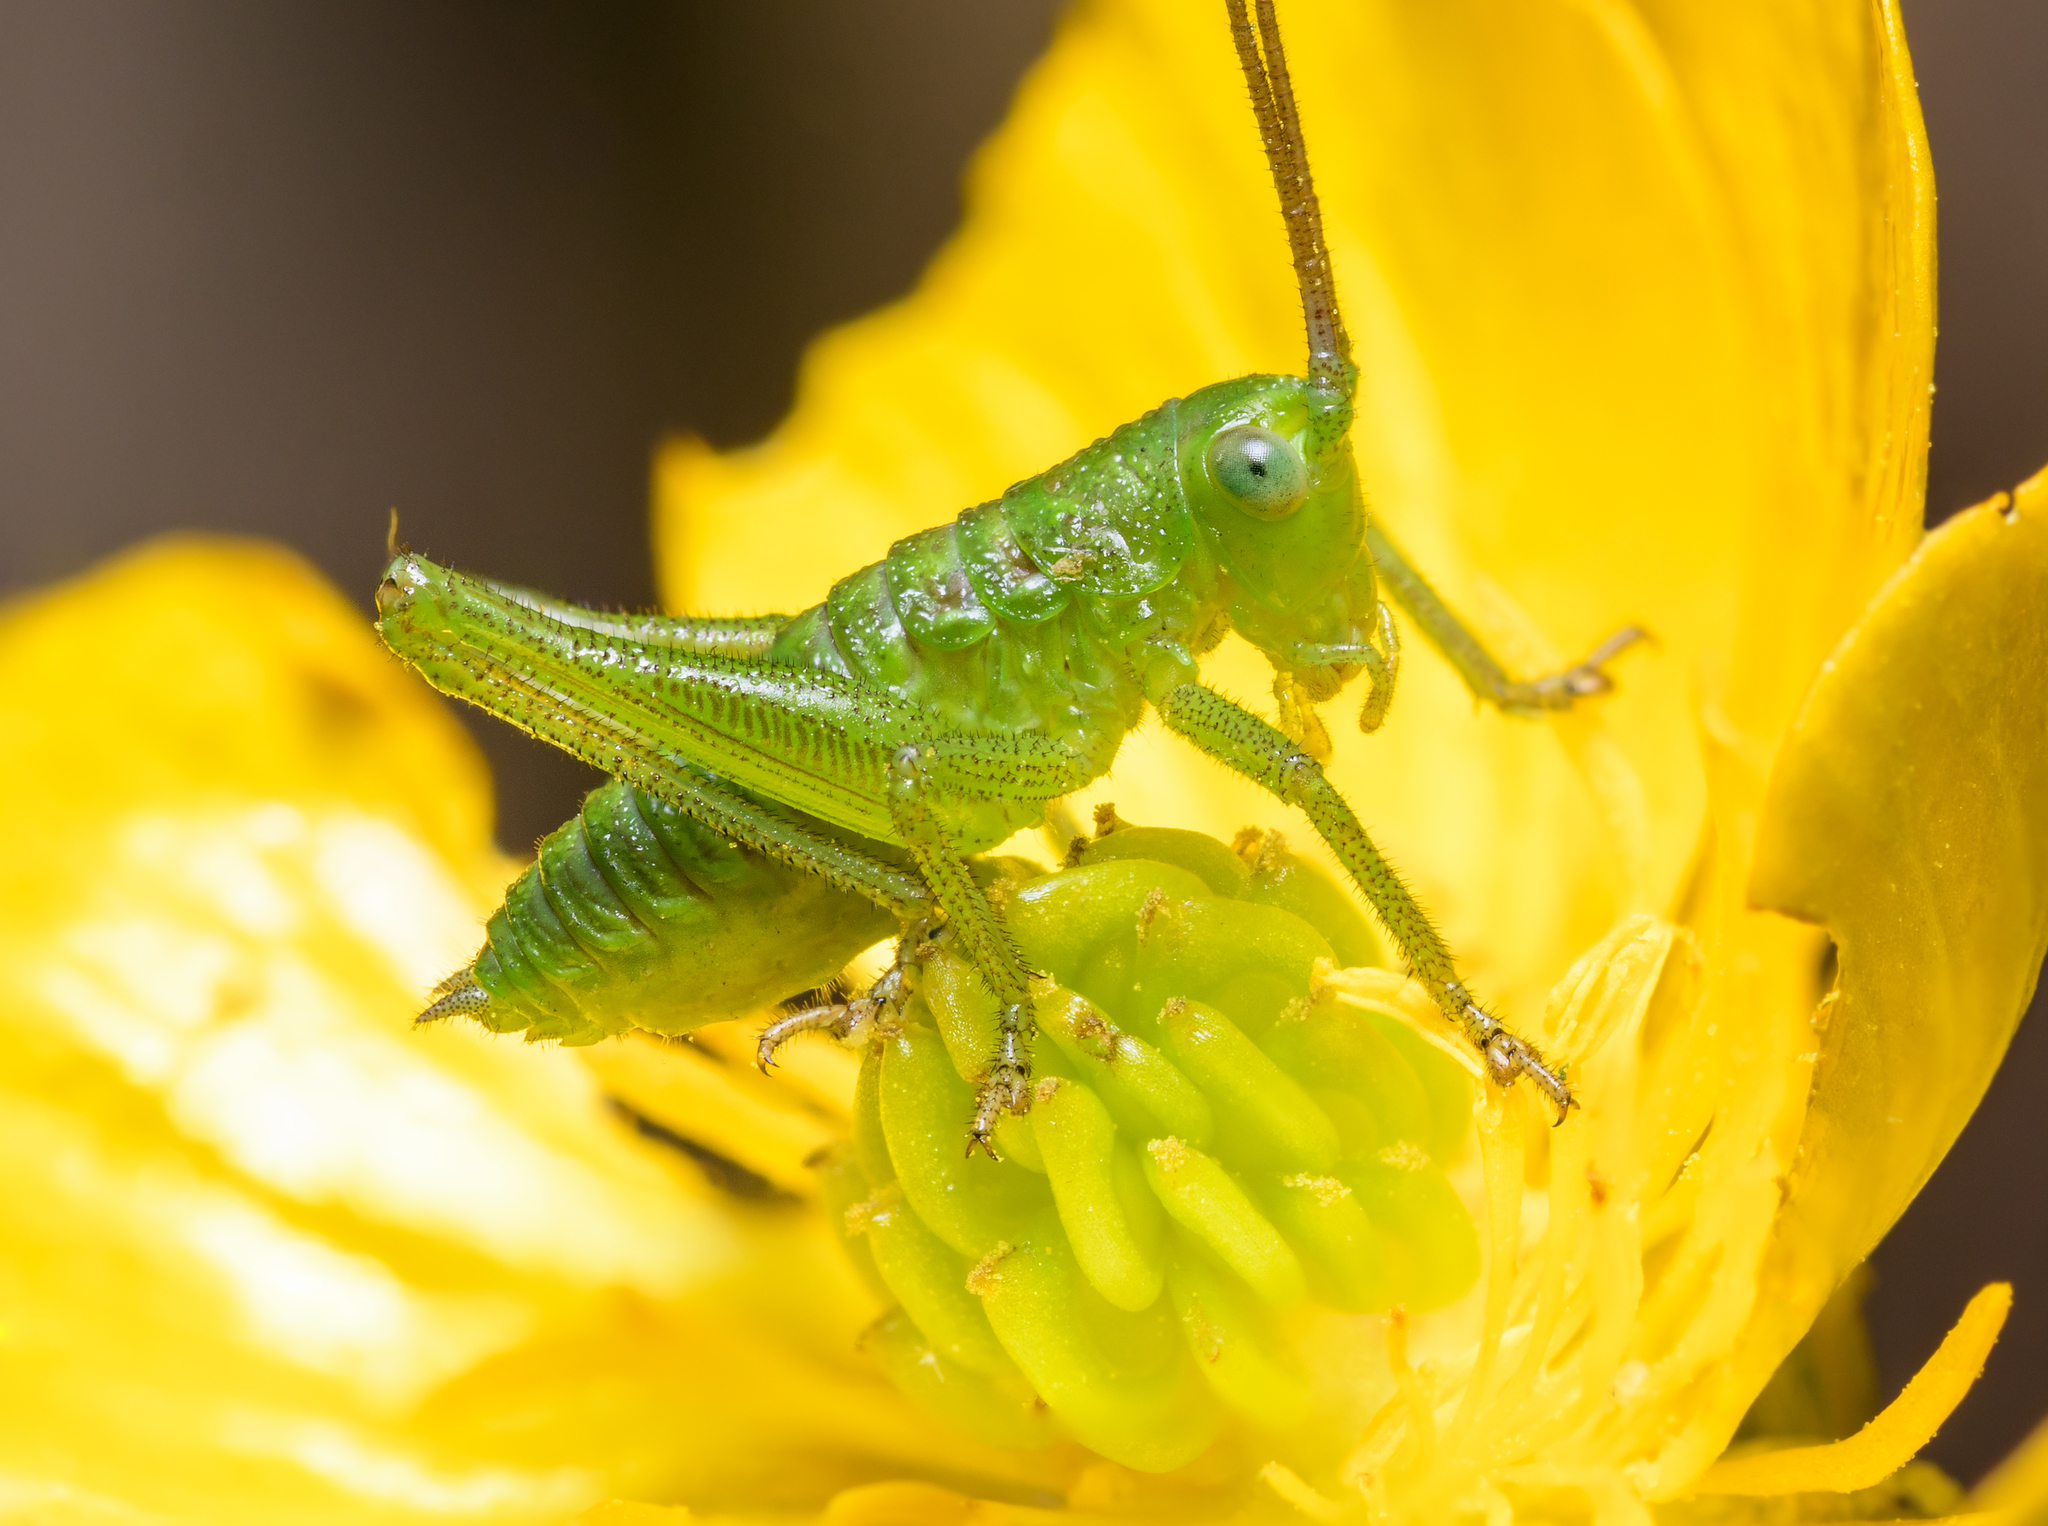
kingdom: Animalia
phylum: Arthropoda
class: Insecta
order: Orthoptera
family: Tettigoniidae
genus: Tettigonia
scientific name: Tettigonia viridissima
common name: Great green bush-cricket
